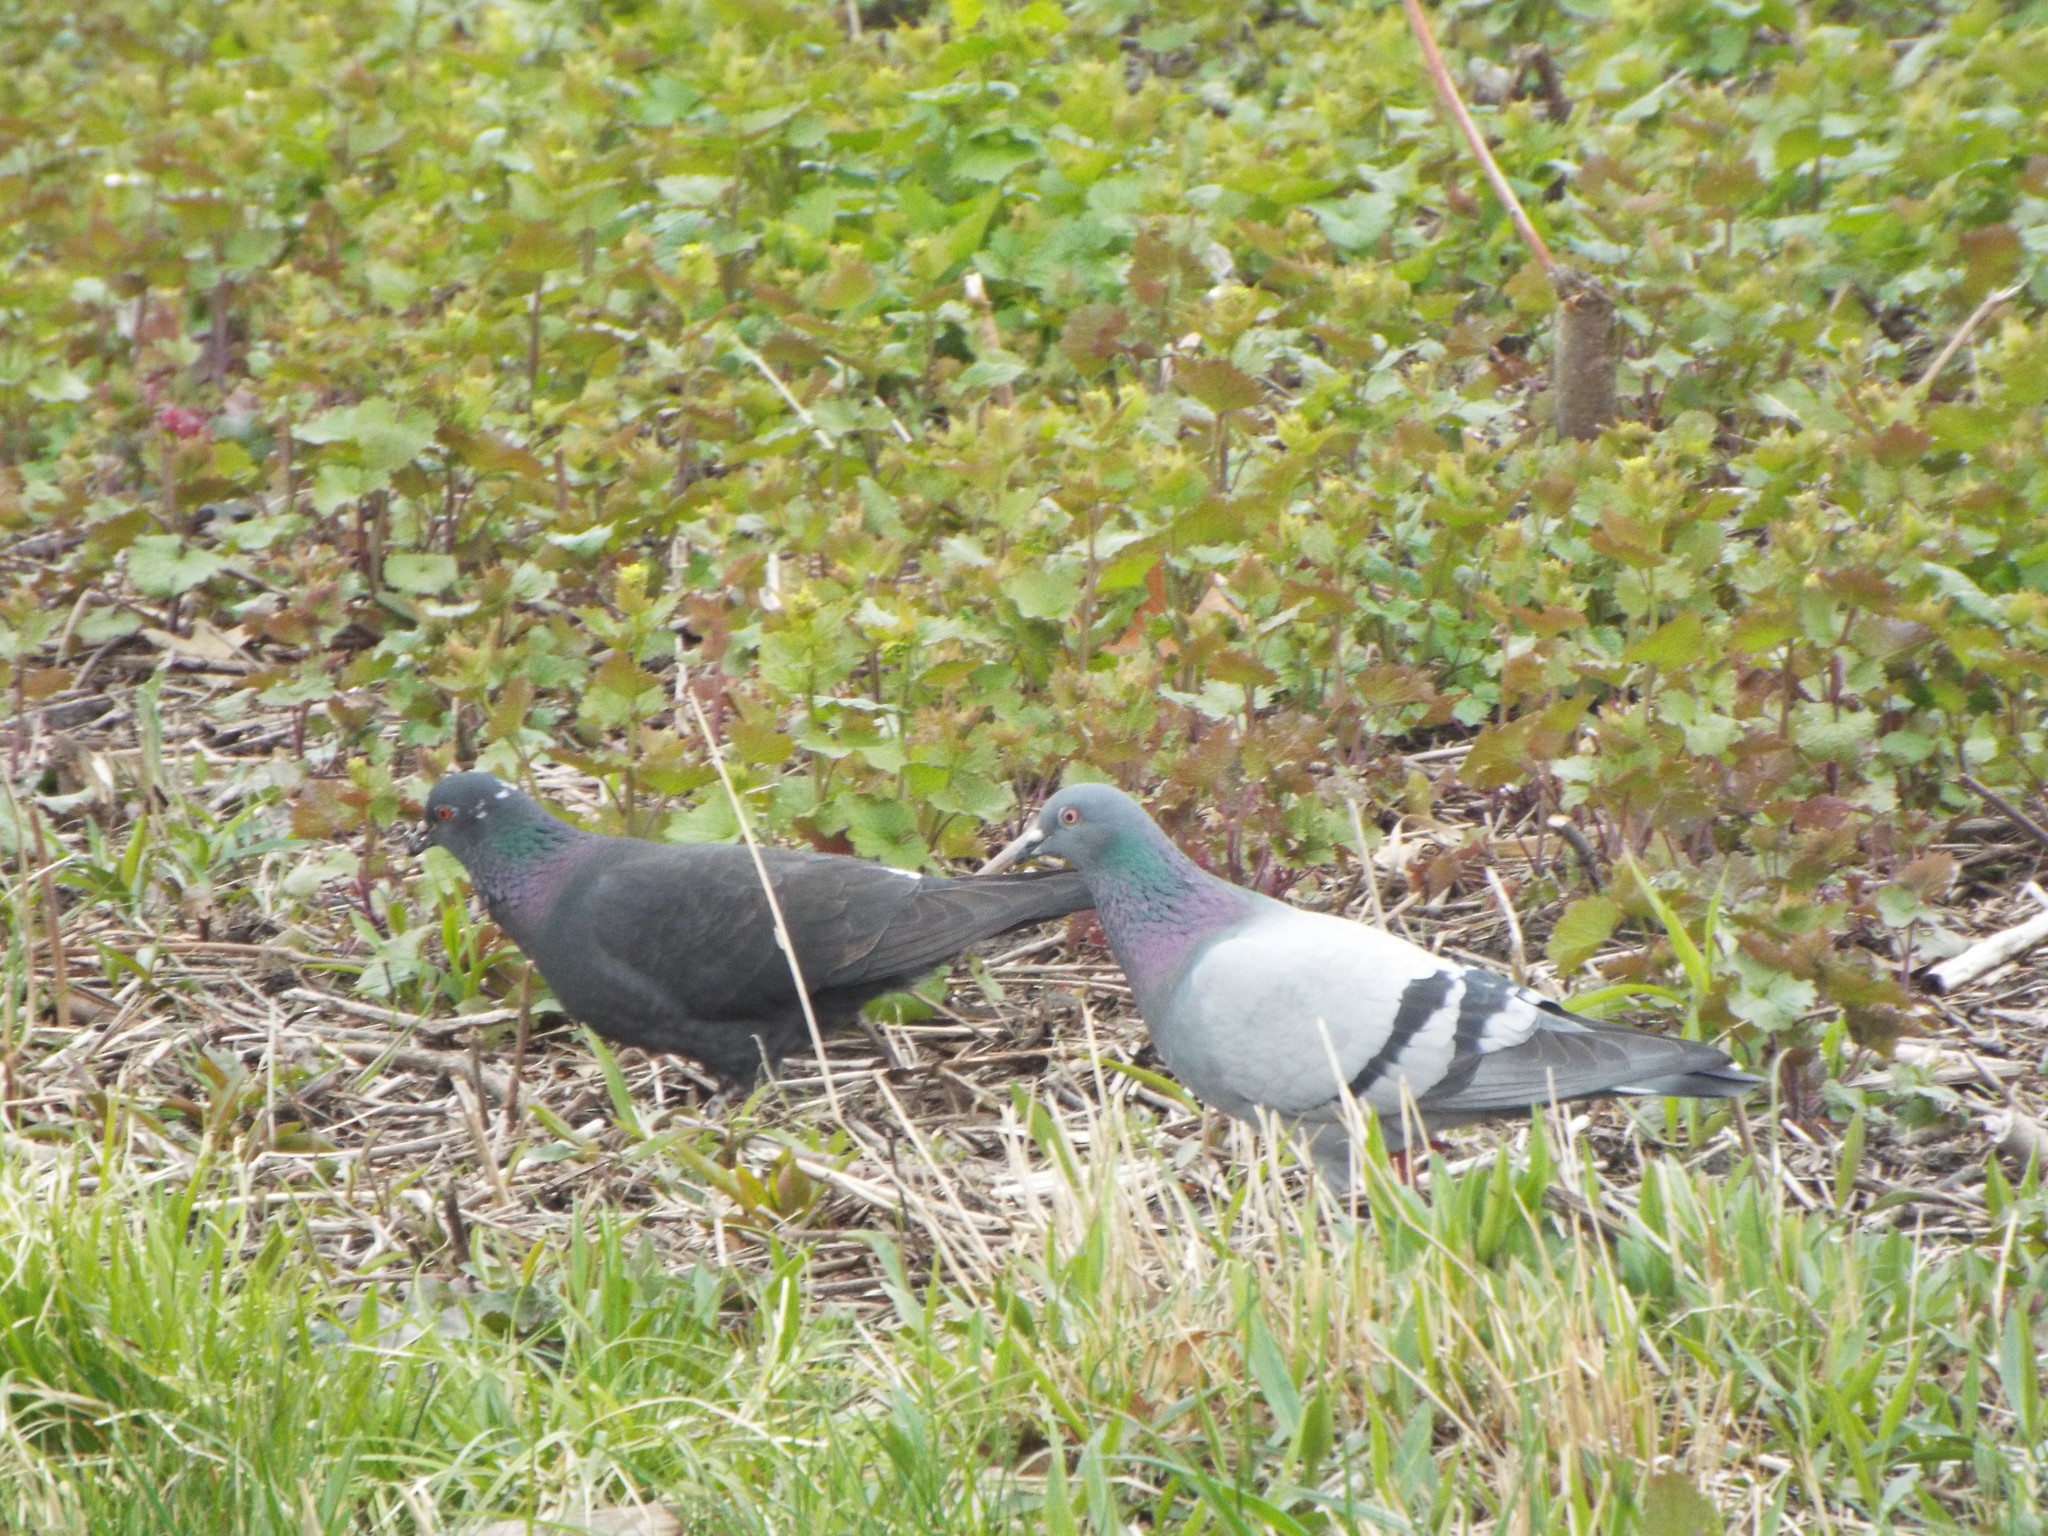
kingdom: Animalia
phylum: Chordata
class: Aves
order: Columbiformes
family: Columbidae
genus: Columba
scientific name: Columba livia
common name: Rock pigeon
